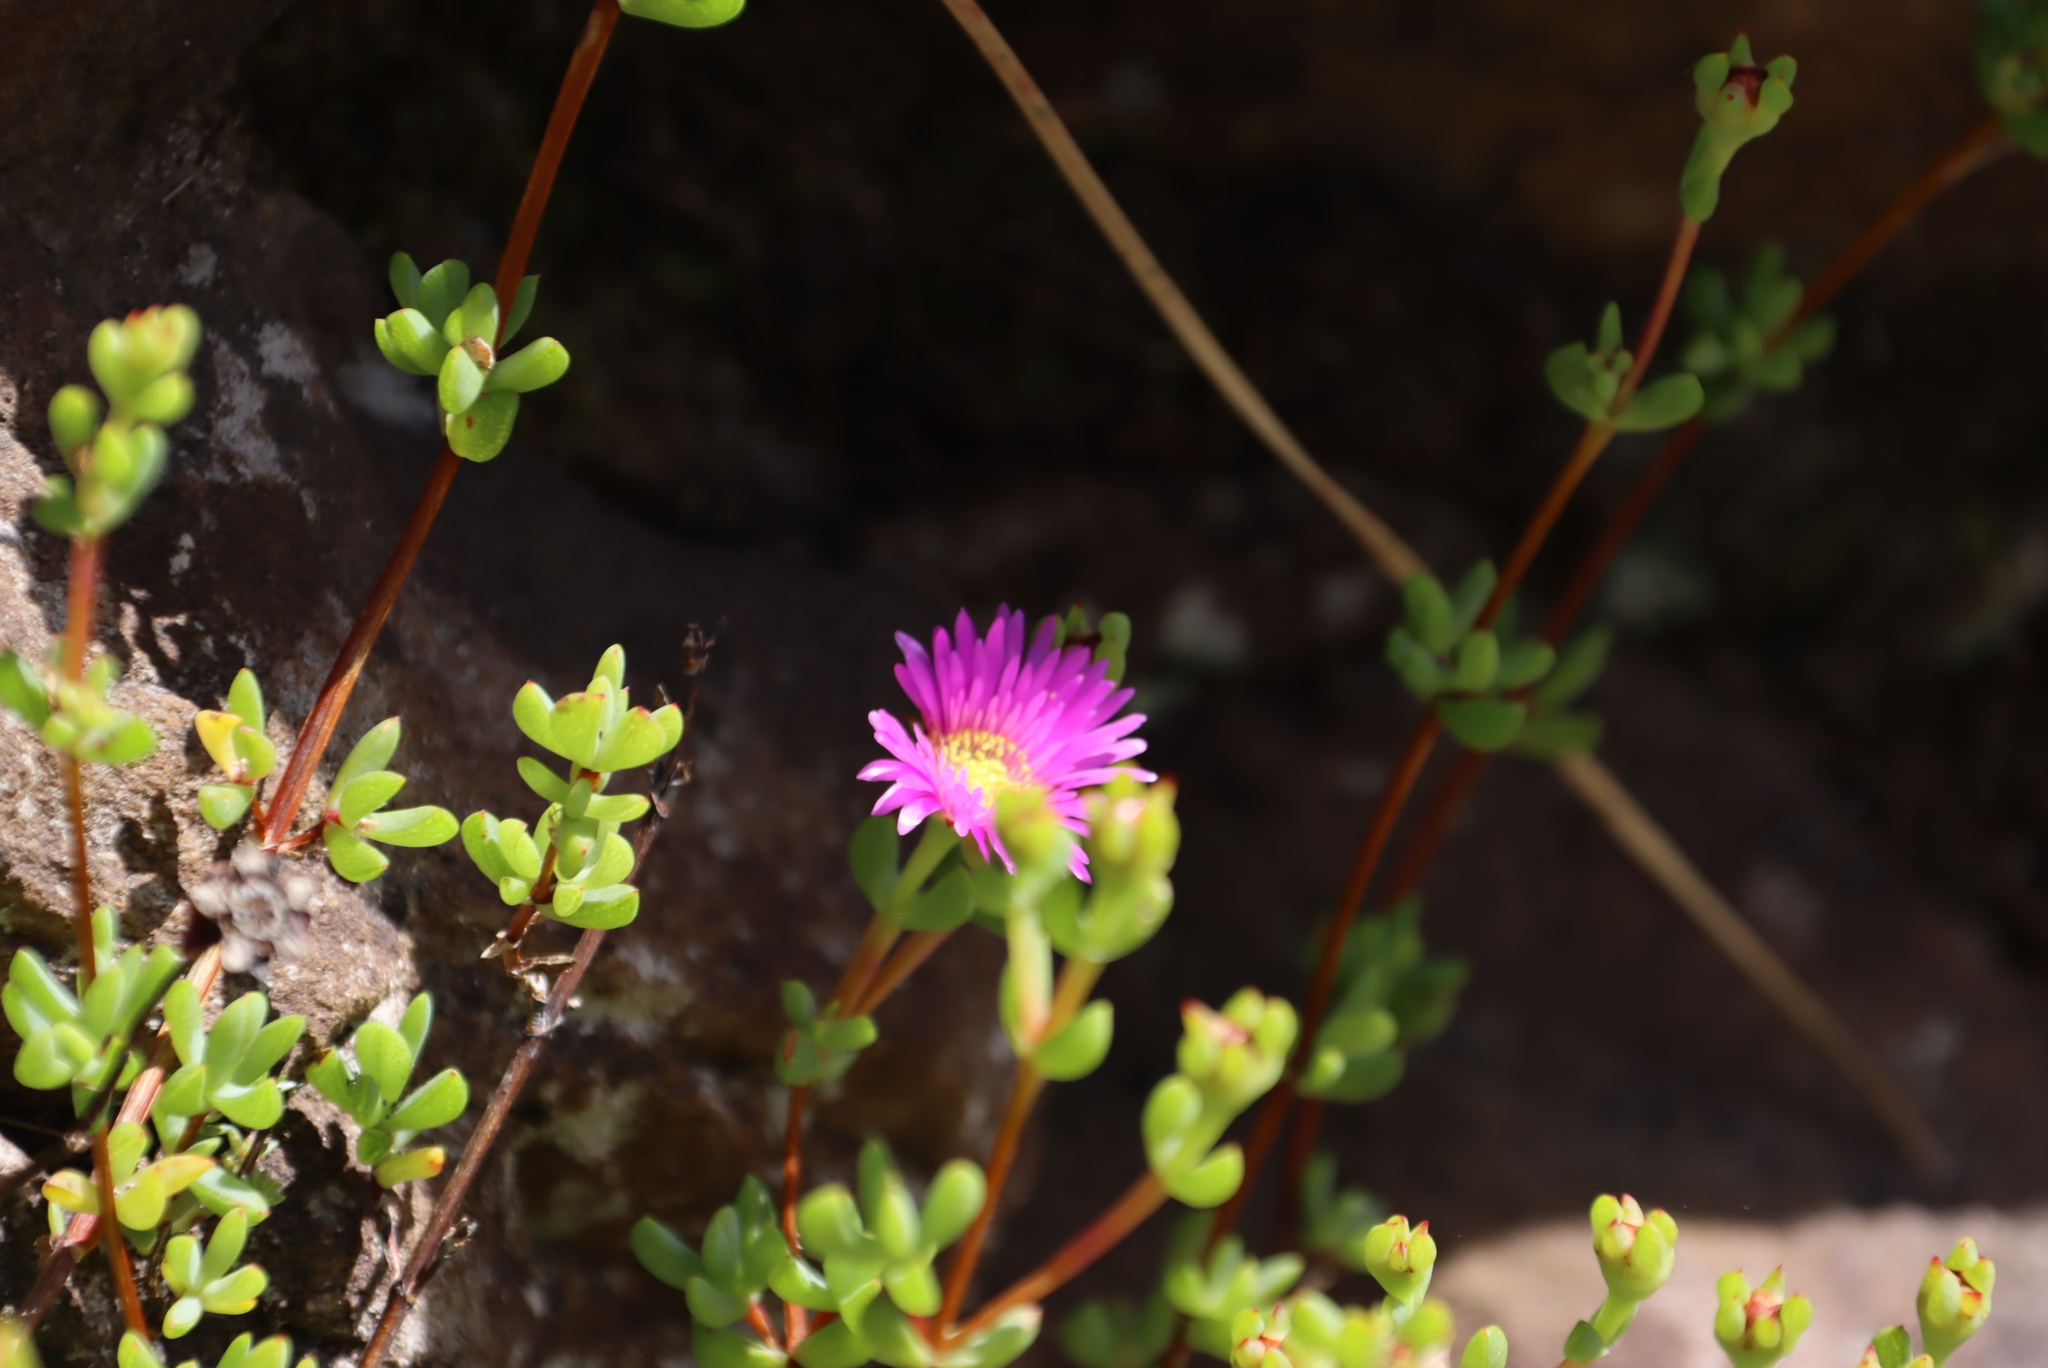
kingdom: Plantae
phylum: Tracheophyta
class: Magnoliopsida
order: Caryophyllales
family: Aizoaceae
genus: Oscularia
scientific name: Oscularia falciformis
